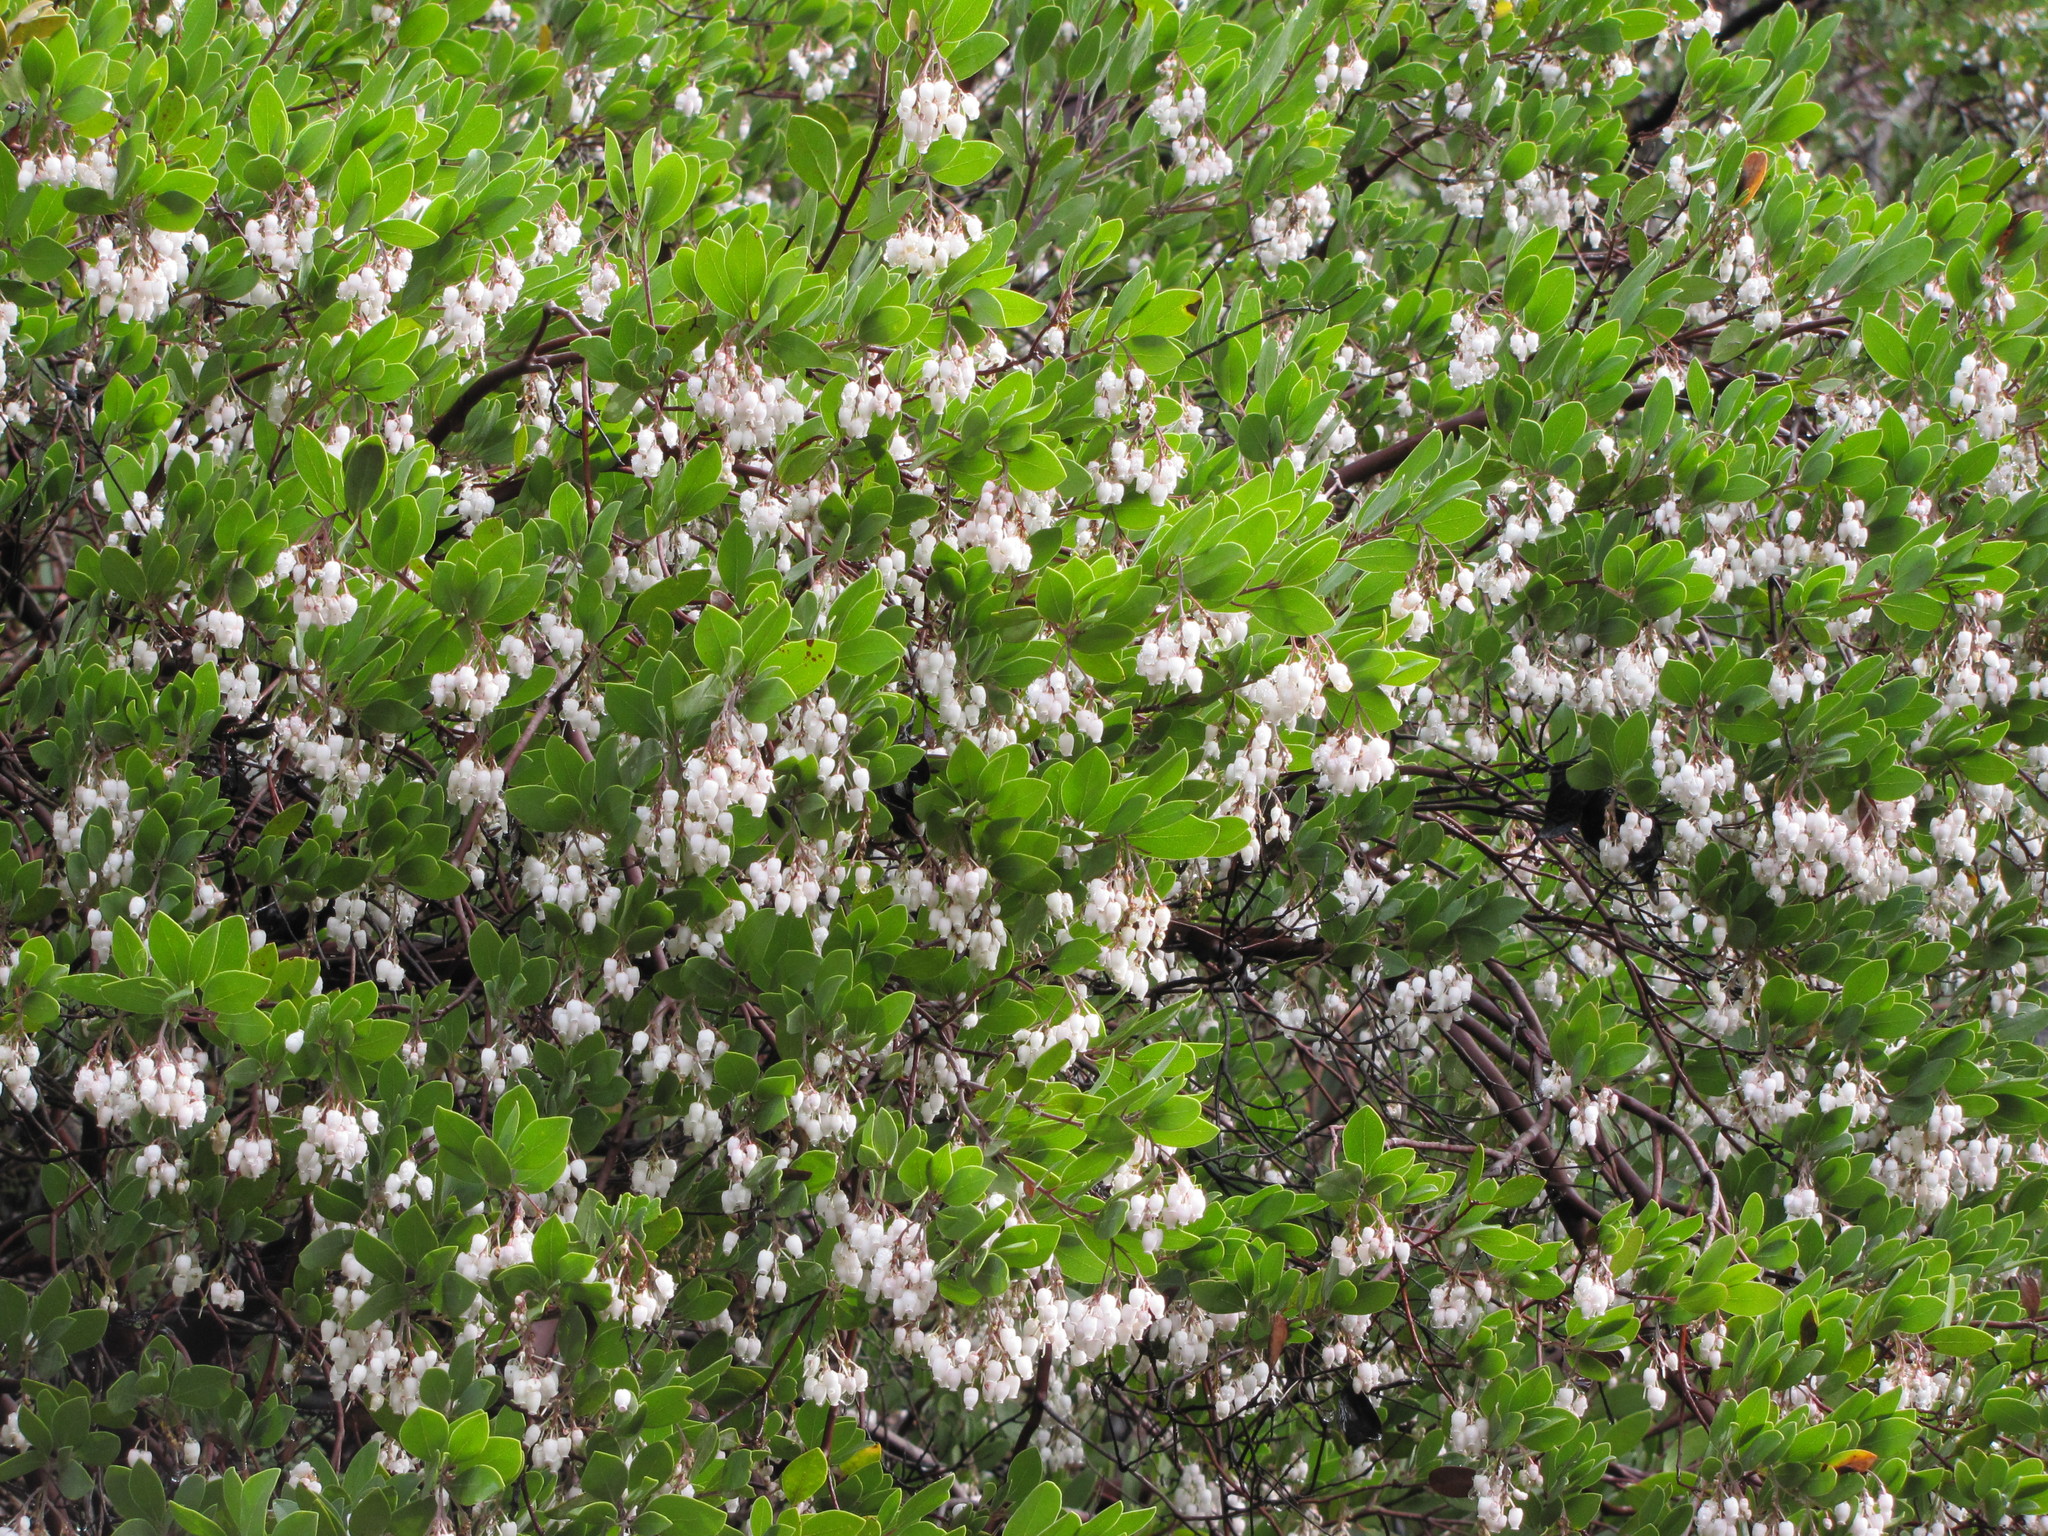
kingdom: Plantae
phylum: Tracheophyta
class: Magnoliopsida
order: Ericales
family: Ericaceae
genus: Arctostaphylos
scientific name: Arctostaphylos bakeri
